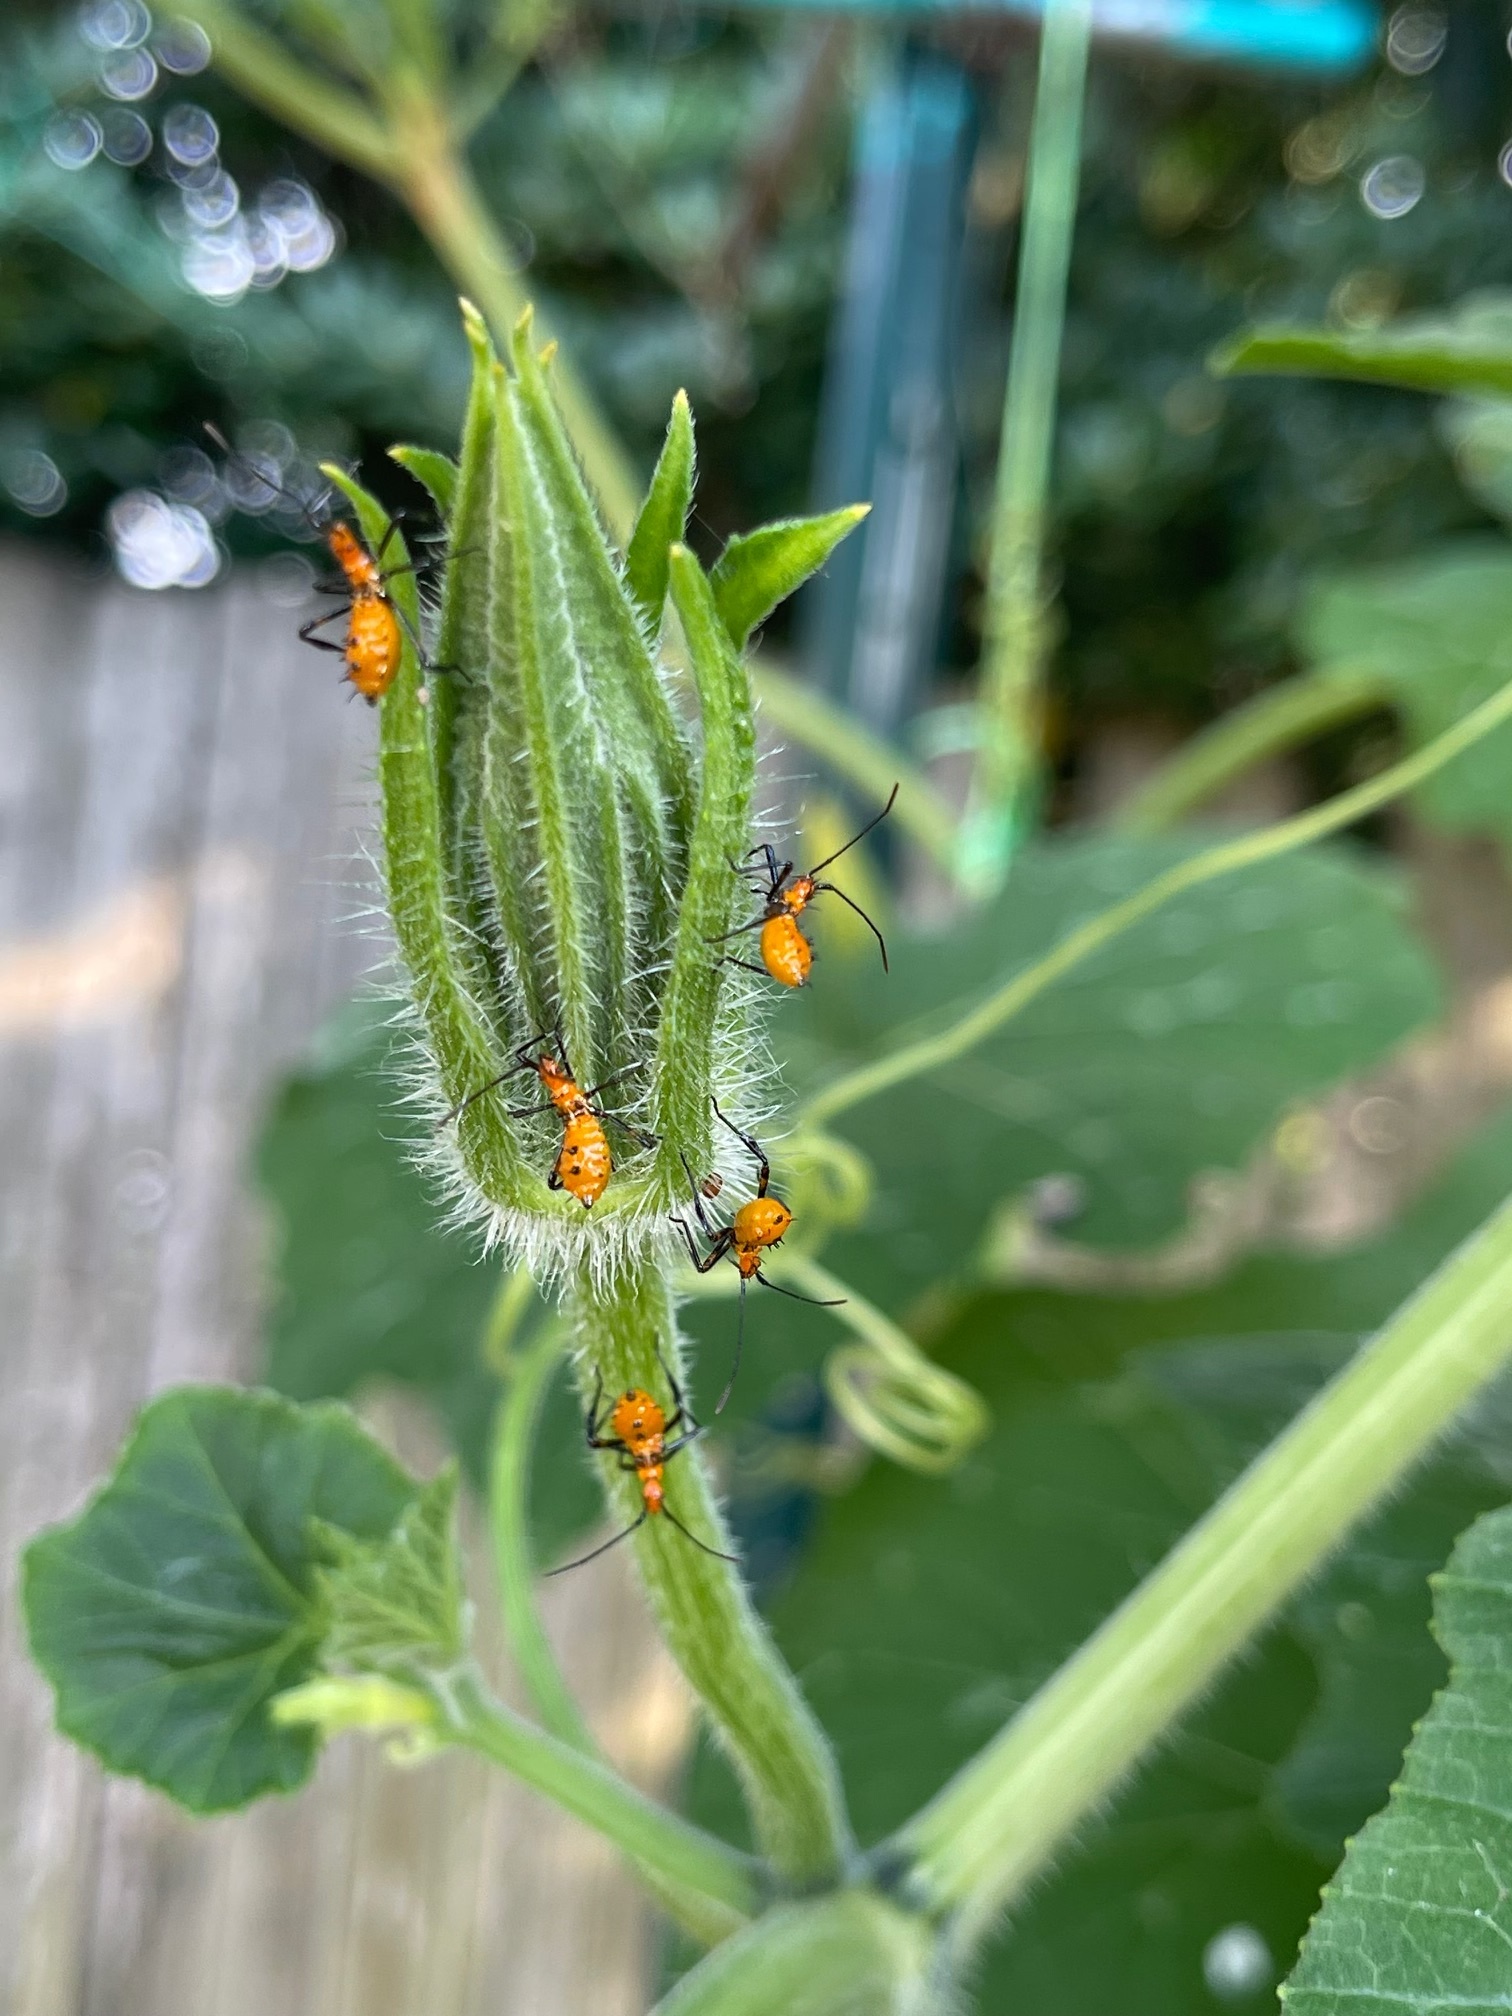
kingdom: Animalia
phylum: Arthropoda
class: Insecta
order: Hemiptera
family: Coreidae
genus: Leptoglossus
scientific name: Leptoglossus phyllopus
